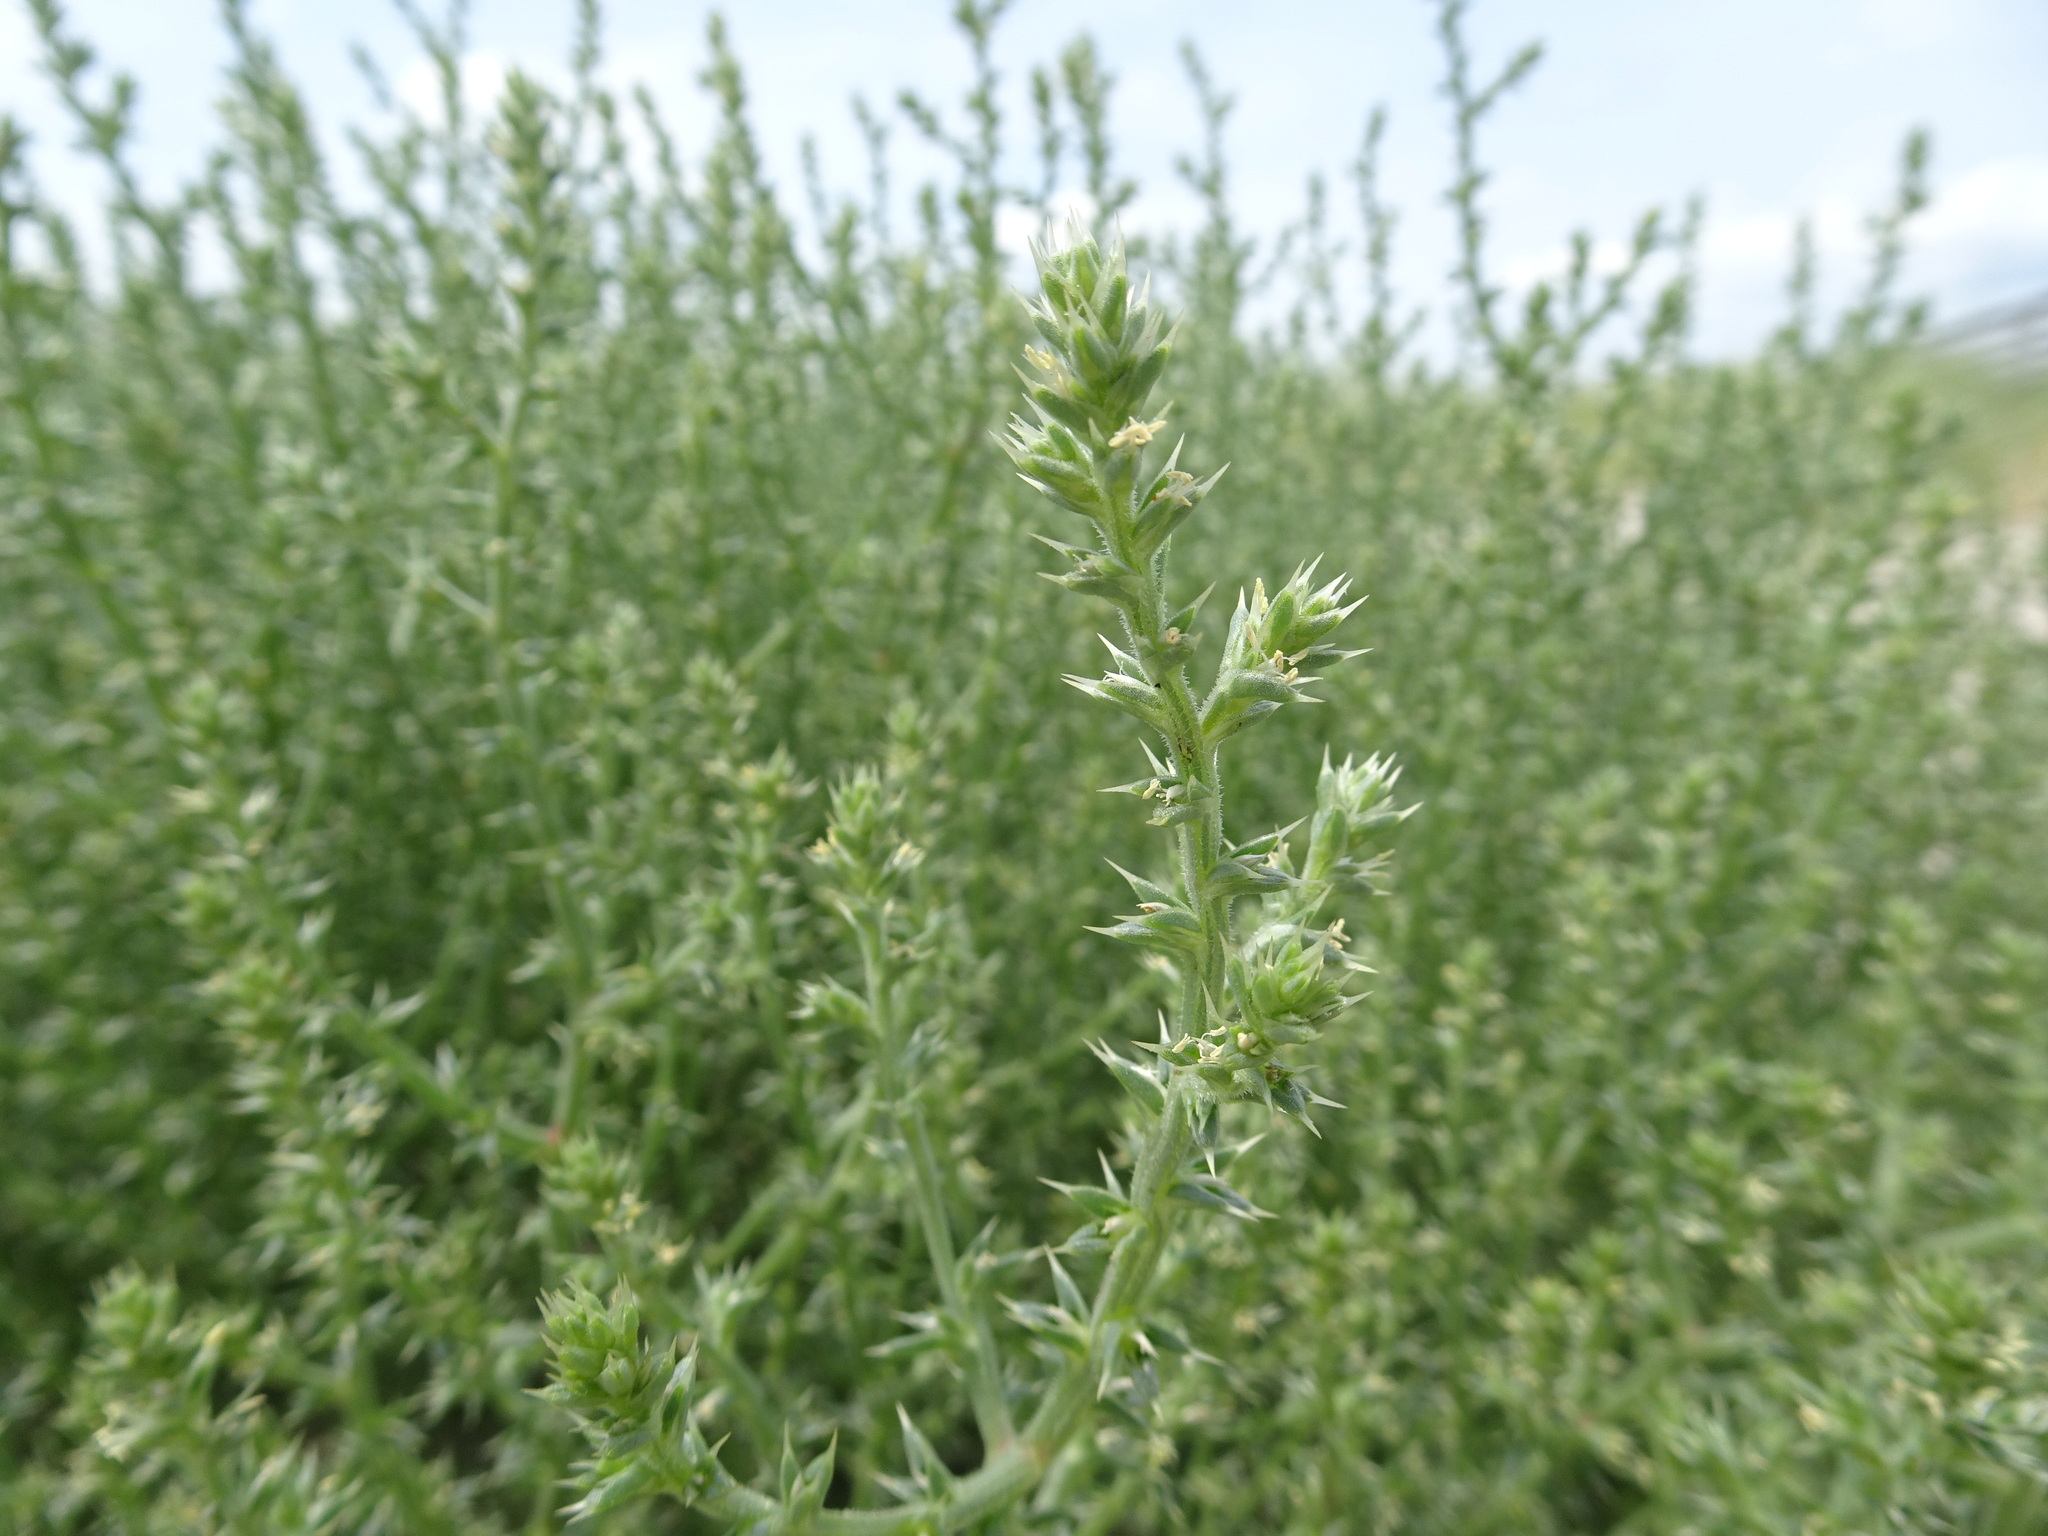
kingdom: Plantae
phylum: Tracheophyta
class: Magnoliopsida
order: Caryophyllales
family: Amaranthaceae
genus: Salsola
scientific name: Salsola kali
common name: Saltwort
